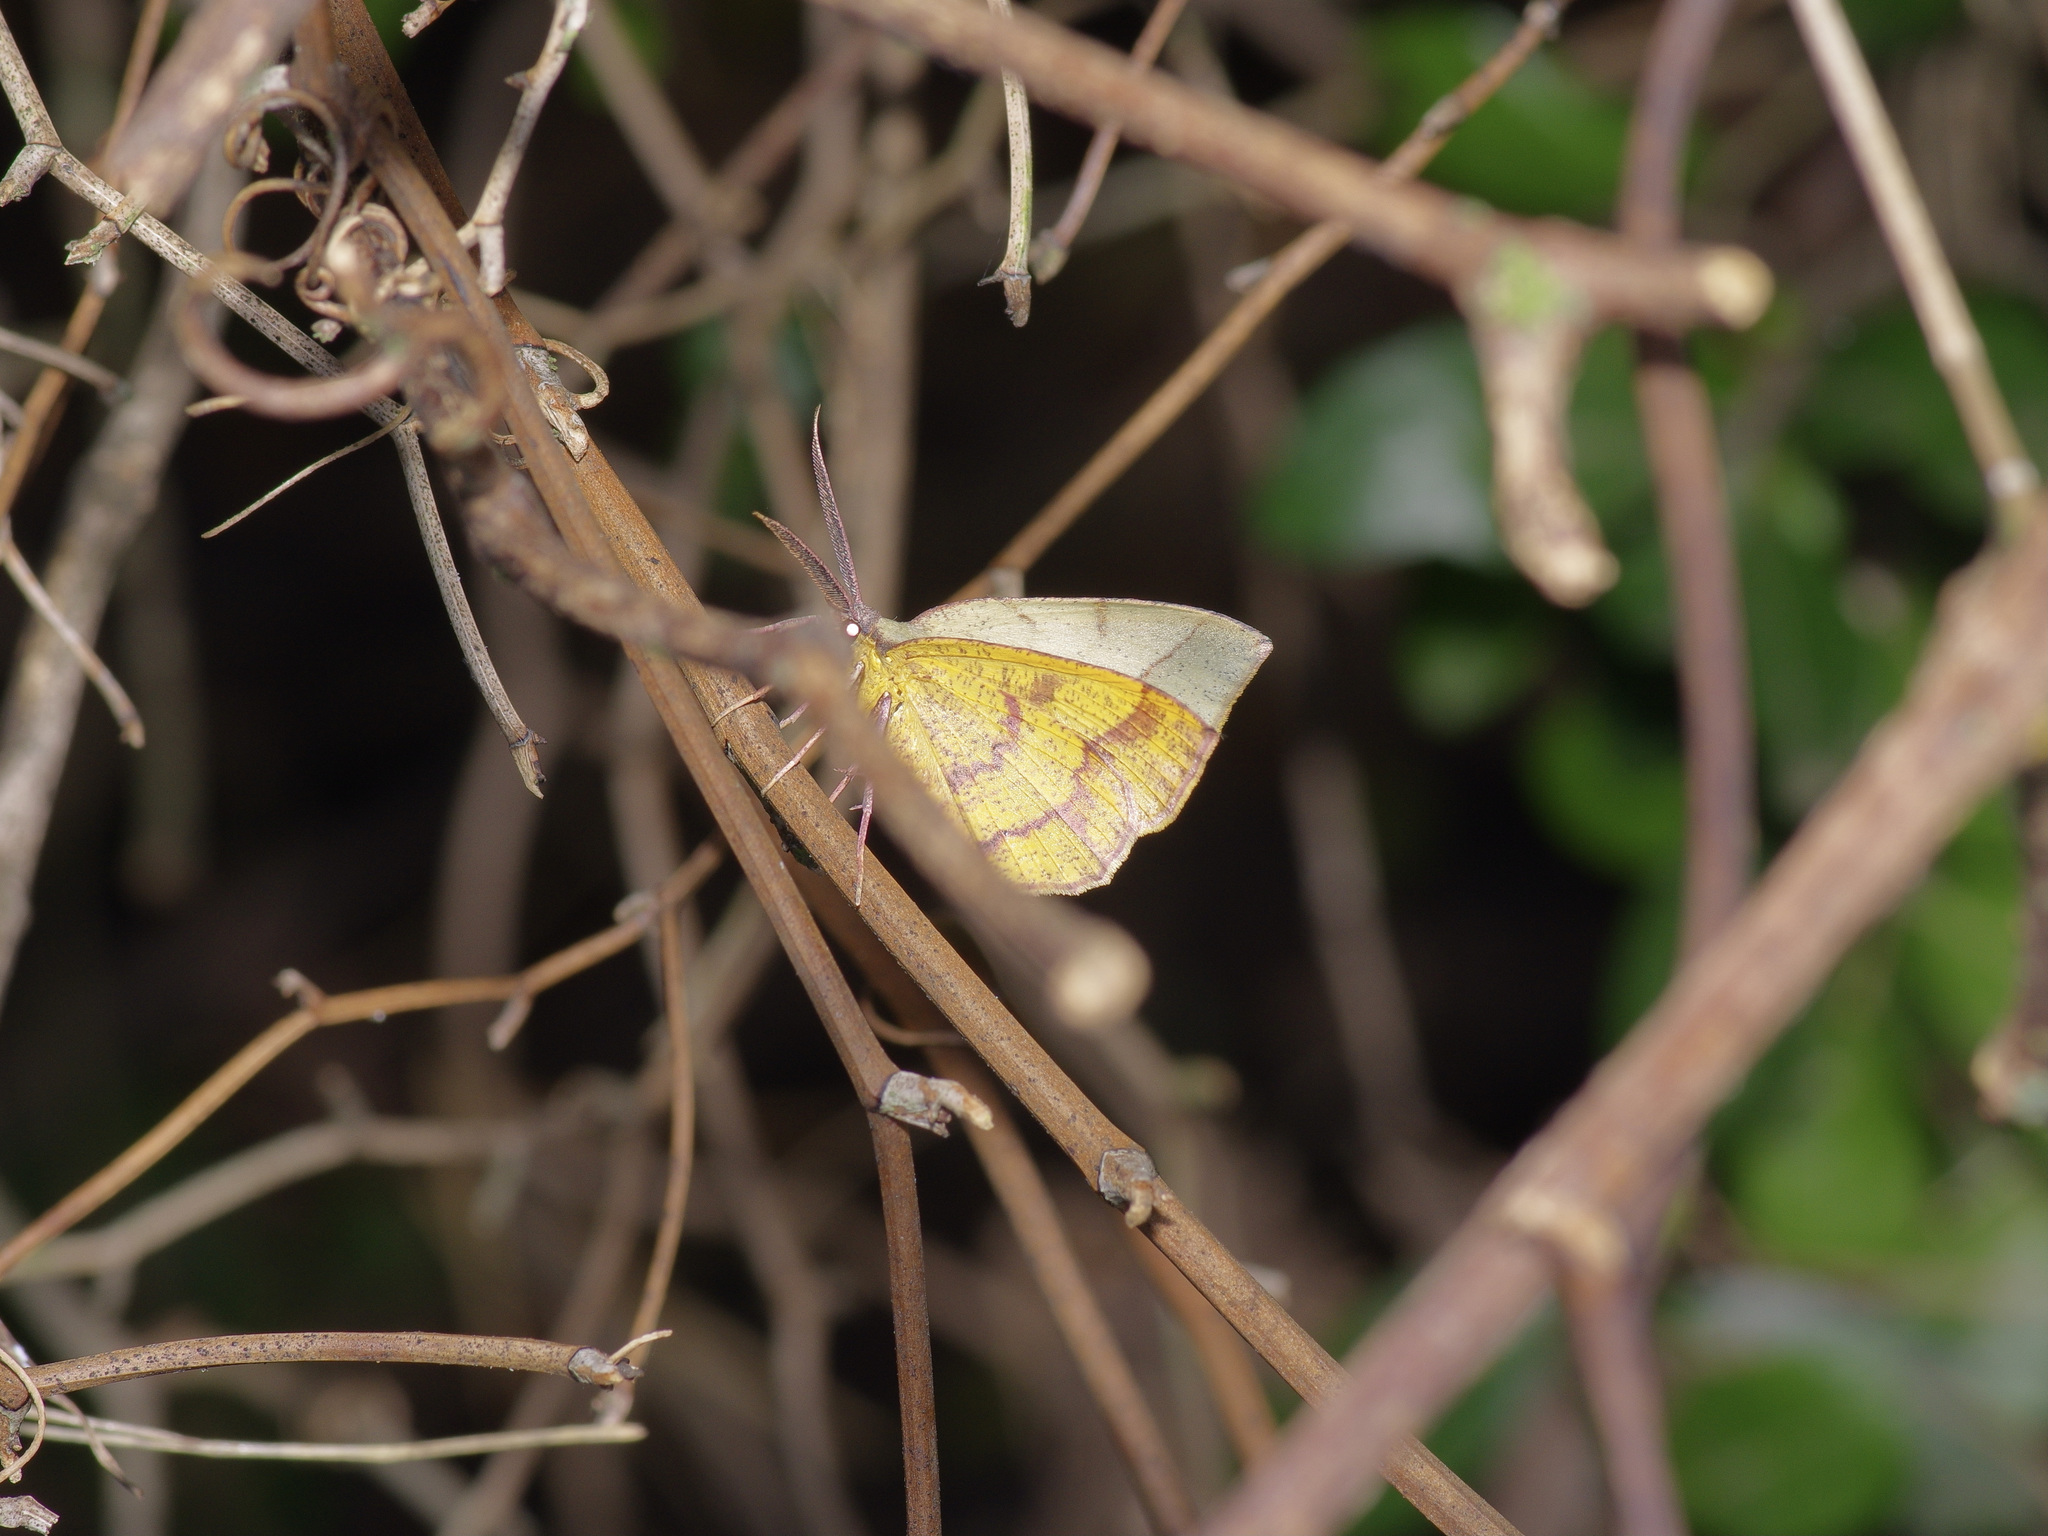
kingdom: Animalia
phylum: Arthropoda
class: Insecta
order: Lepidoptera
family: Geometridae
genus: Erastria
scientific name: Erastria cruentaria
